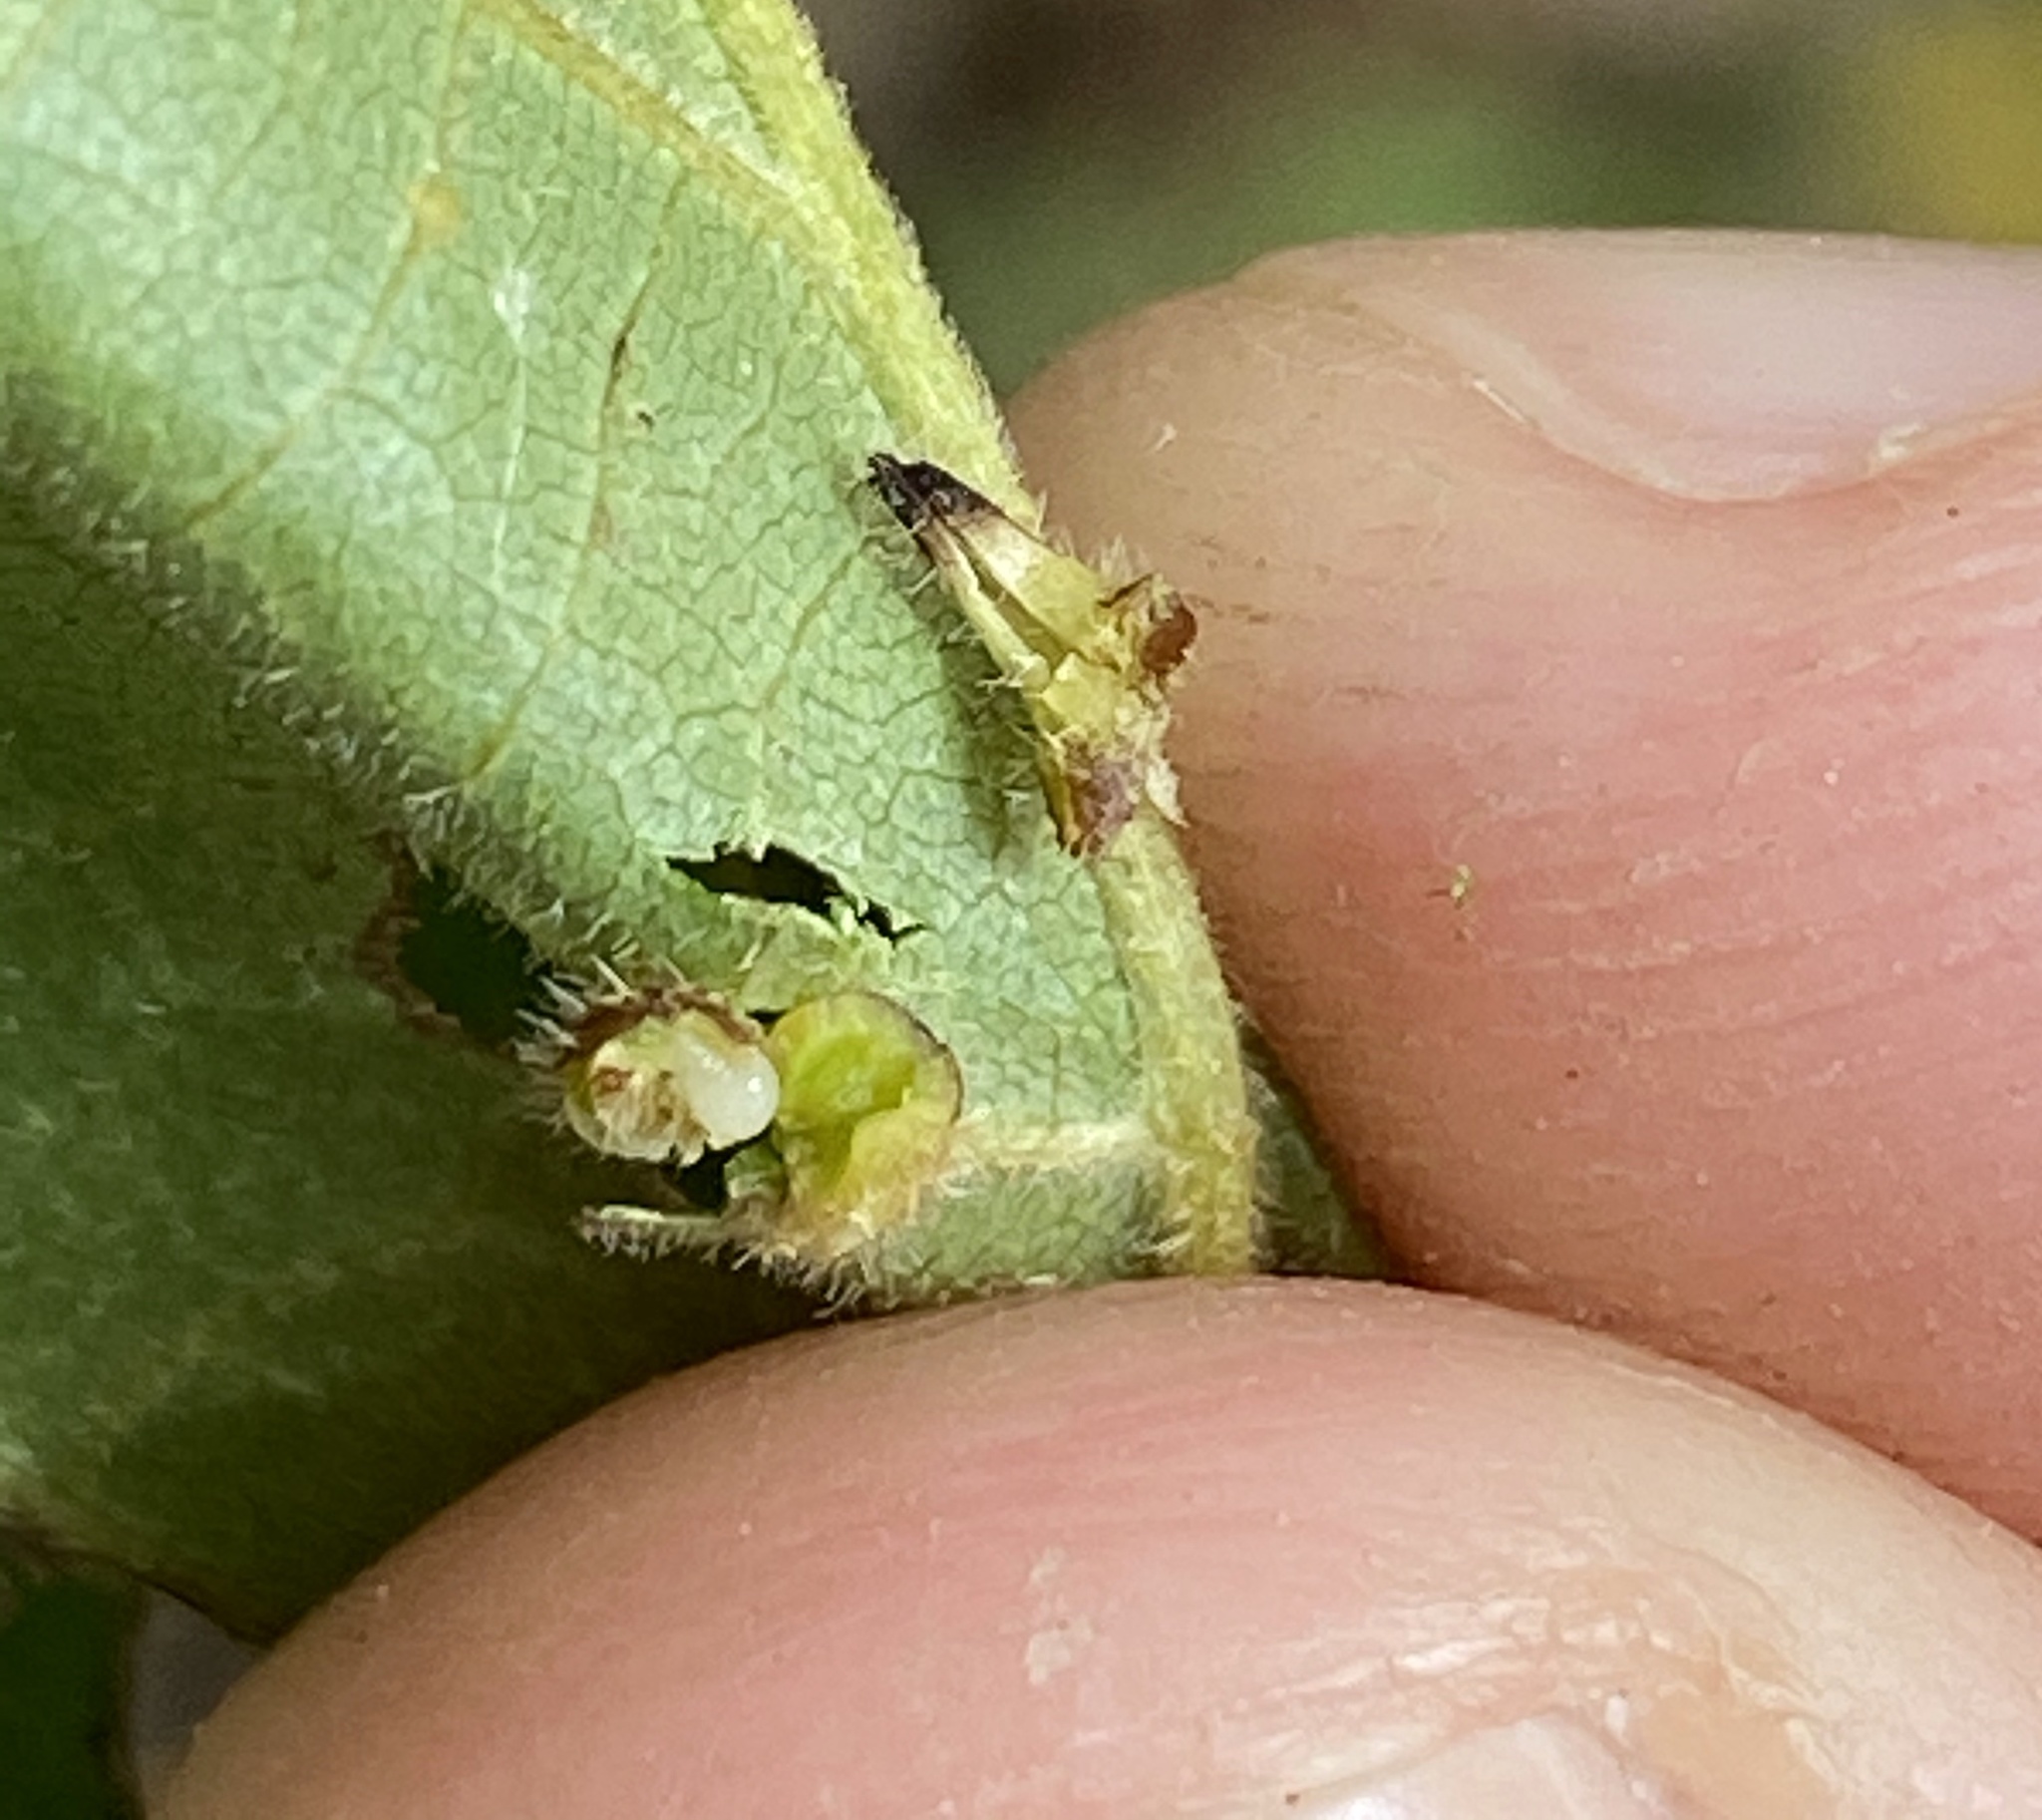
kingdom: Animalia
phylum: Arthropoda
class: Insecta
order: Diptera
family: Cecidomyiidae
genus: Caryomyia
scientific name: Caryomyia inclinata
